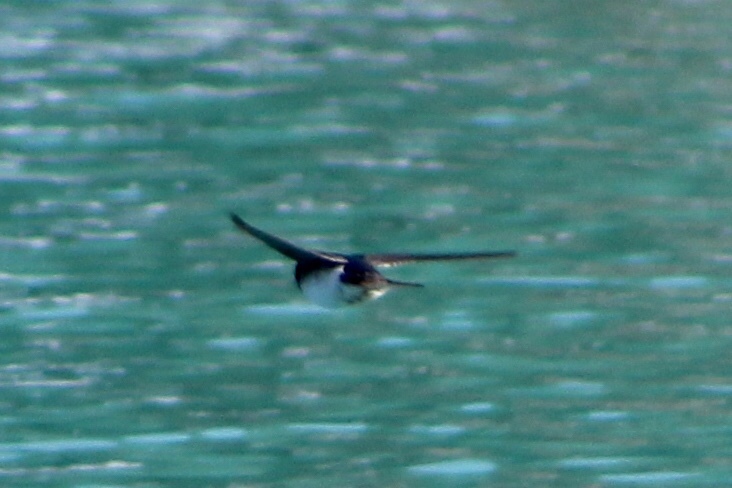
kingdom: Animalia
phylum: Chordata
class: Aves
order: Passeriformes
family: Hirundinidae
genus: Tachycineta
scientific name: Tachycineta bicolor
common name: Tree swallow
